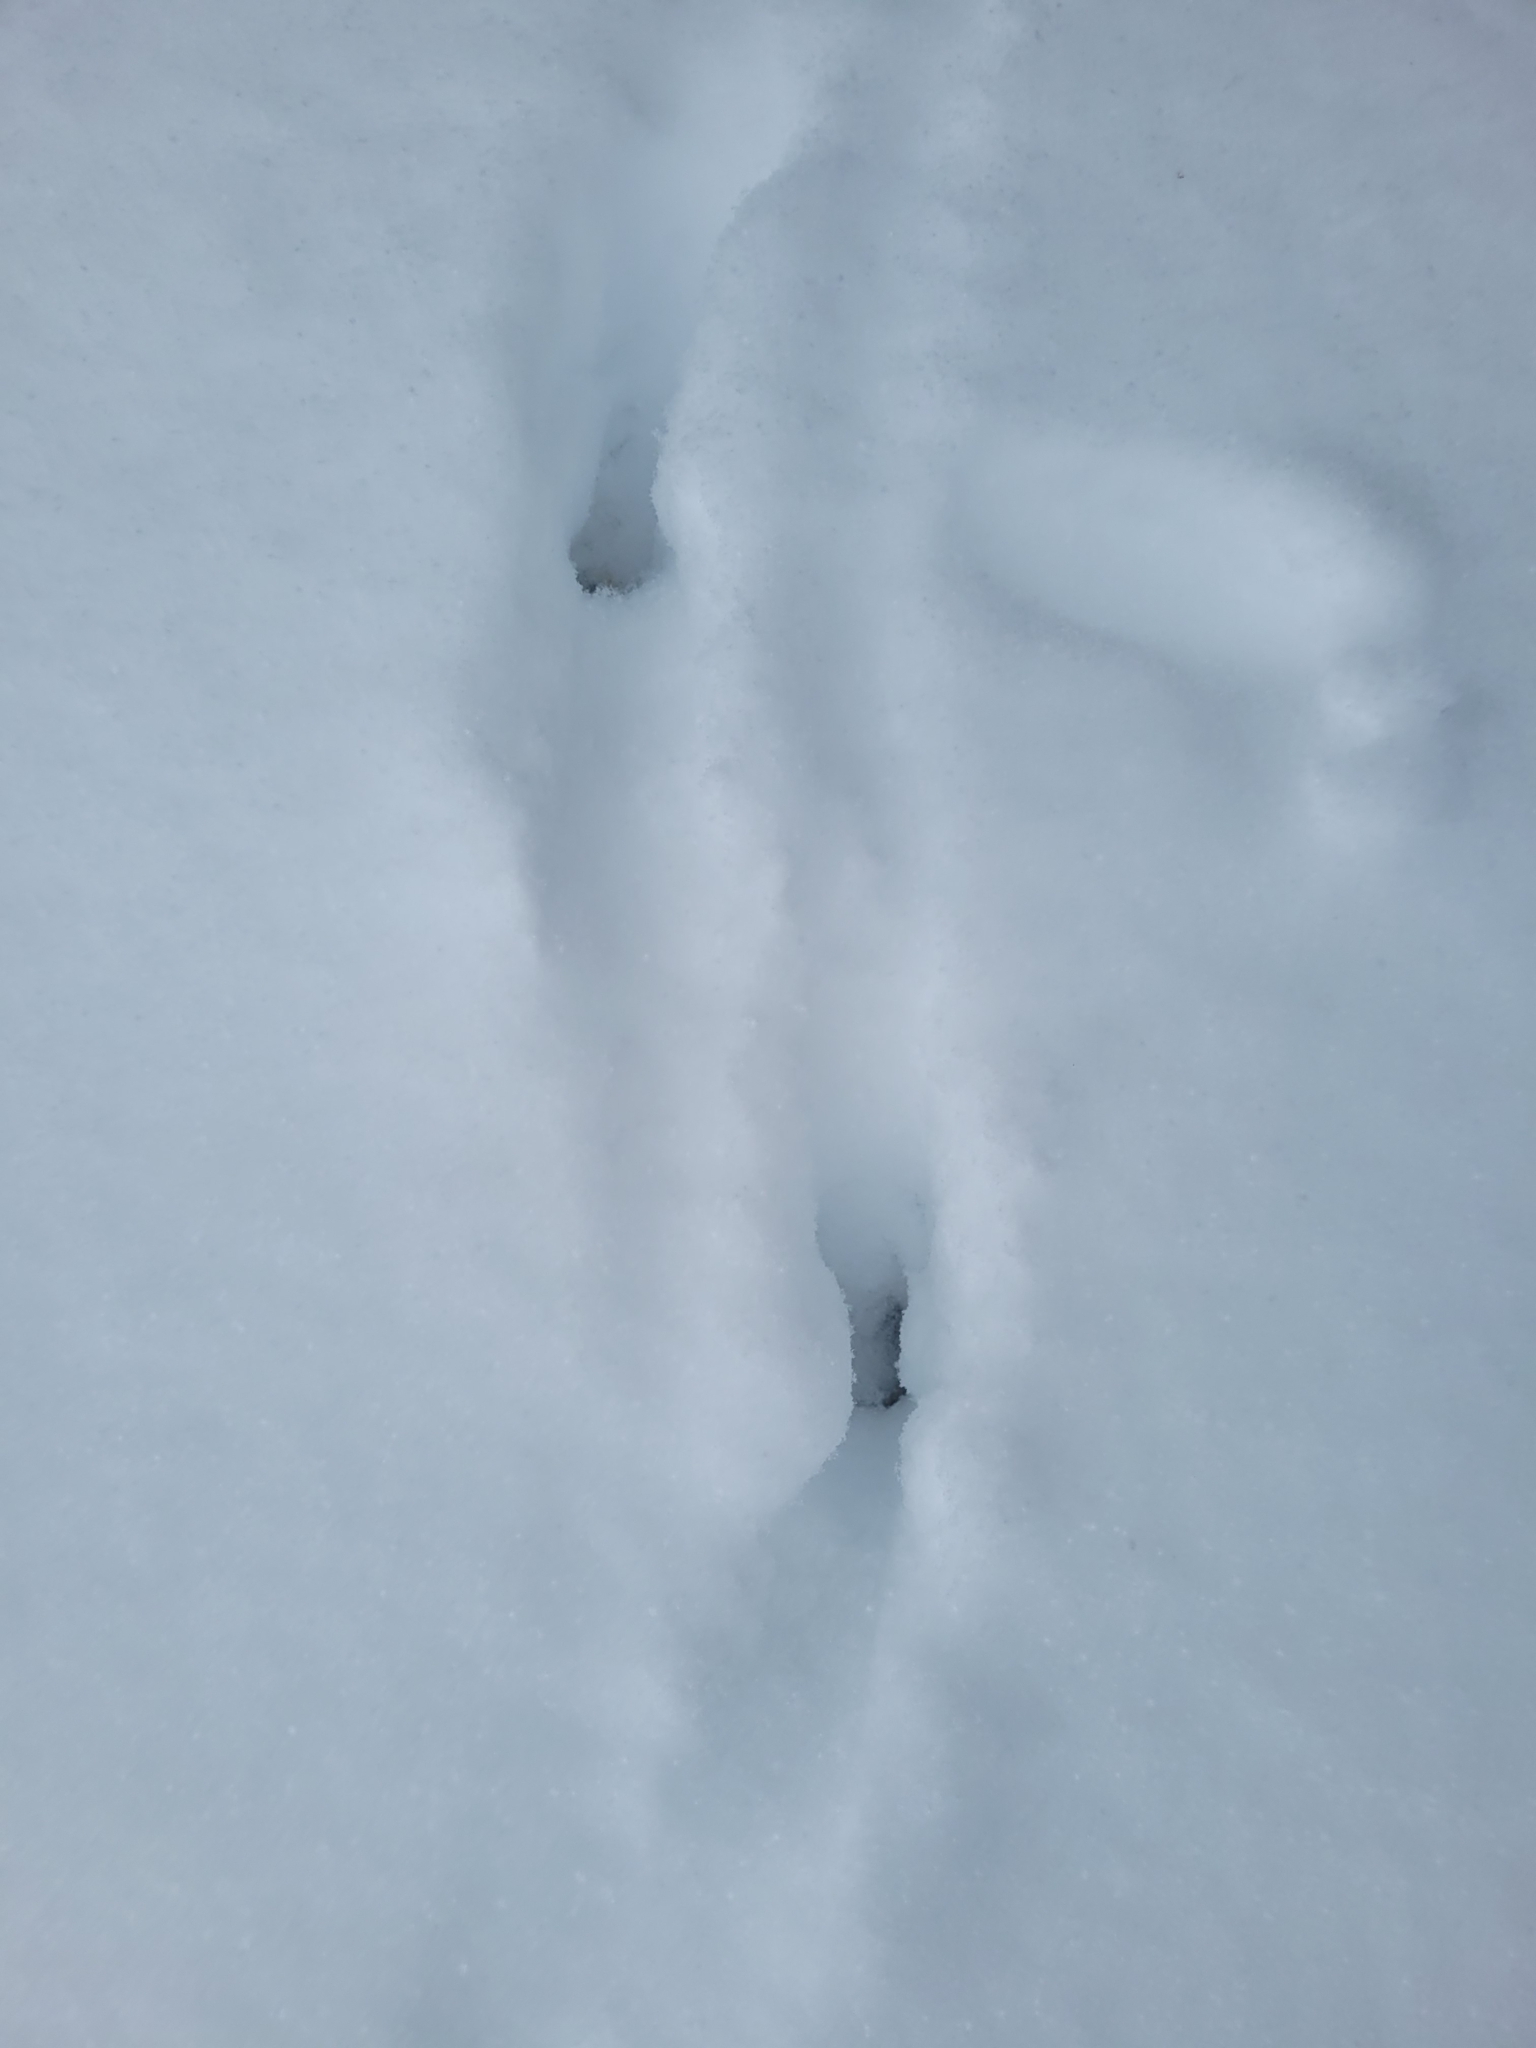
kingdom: Animalia
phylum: Chordata
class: Mammalia
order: Artiodactyla
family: Cervidae
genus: Capreolus
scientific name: Capreolus capreolus
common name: Western roe deer
